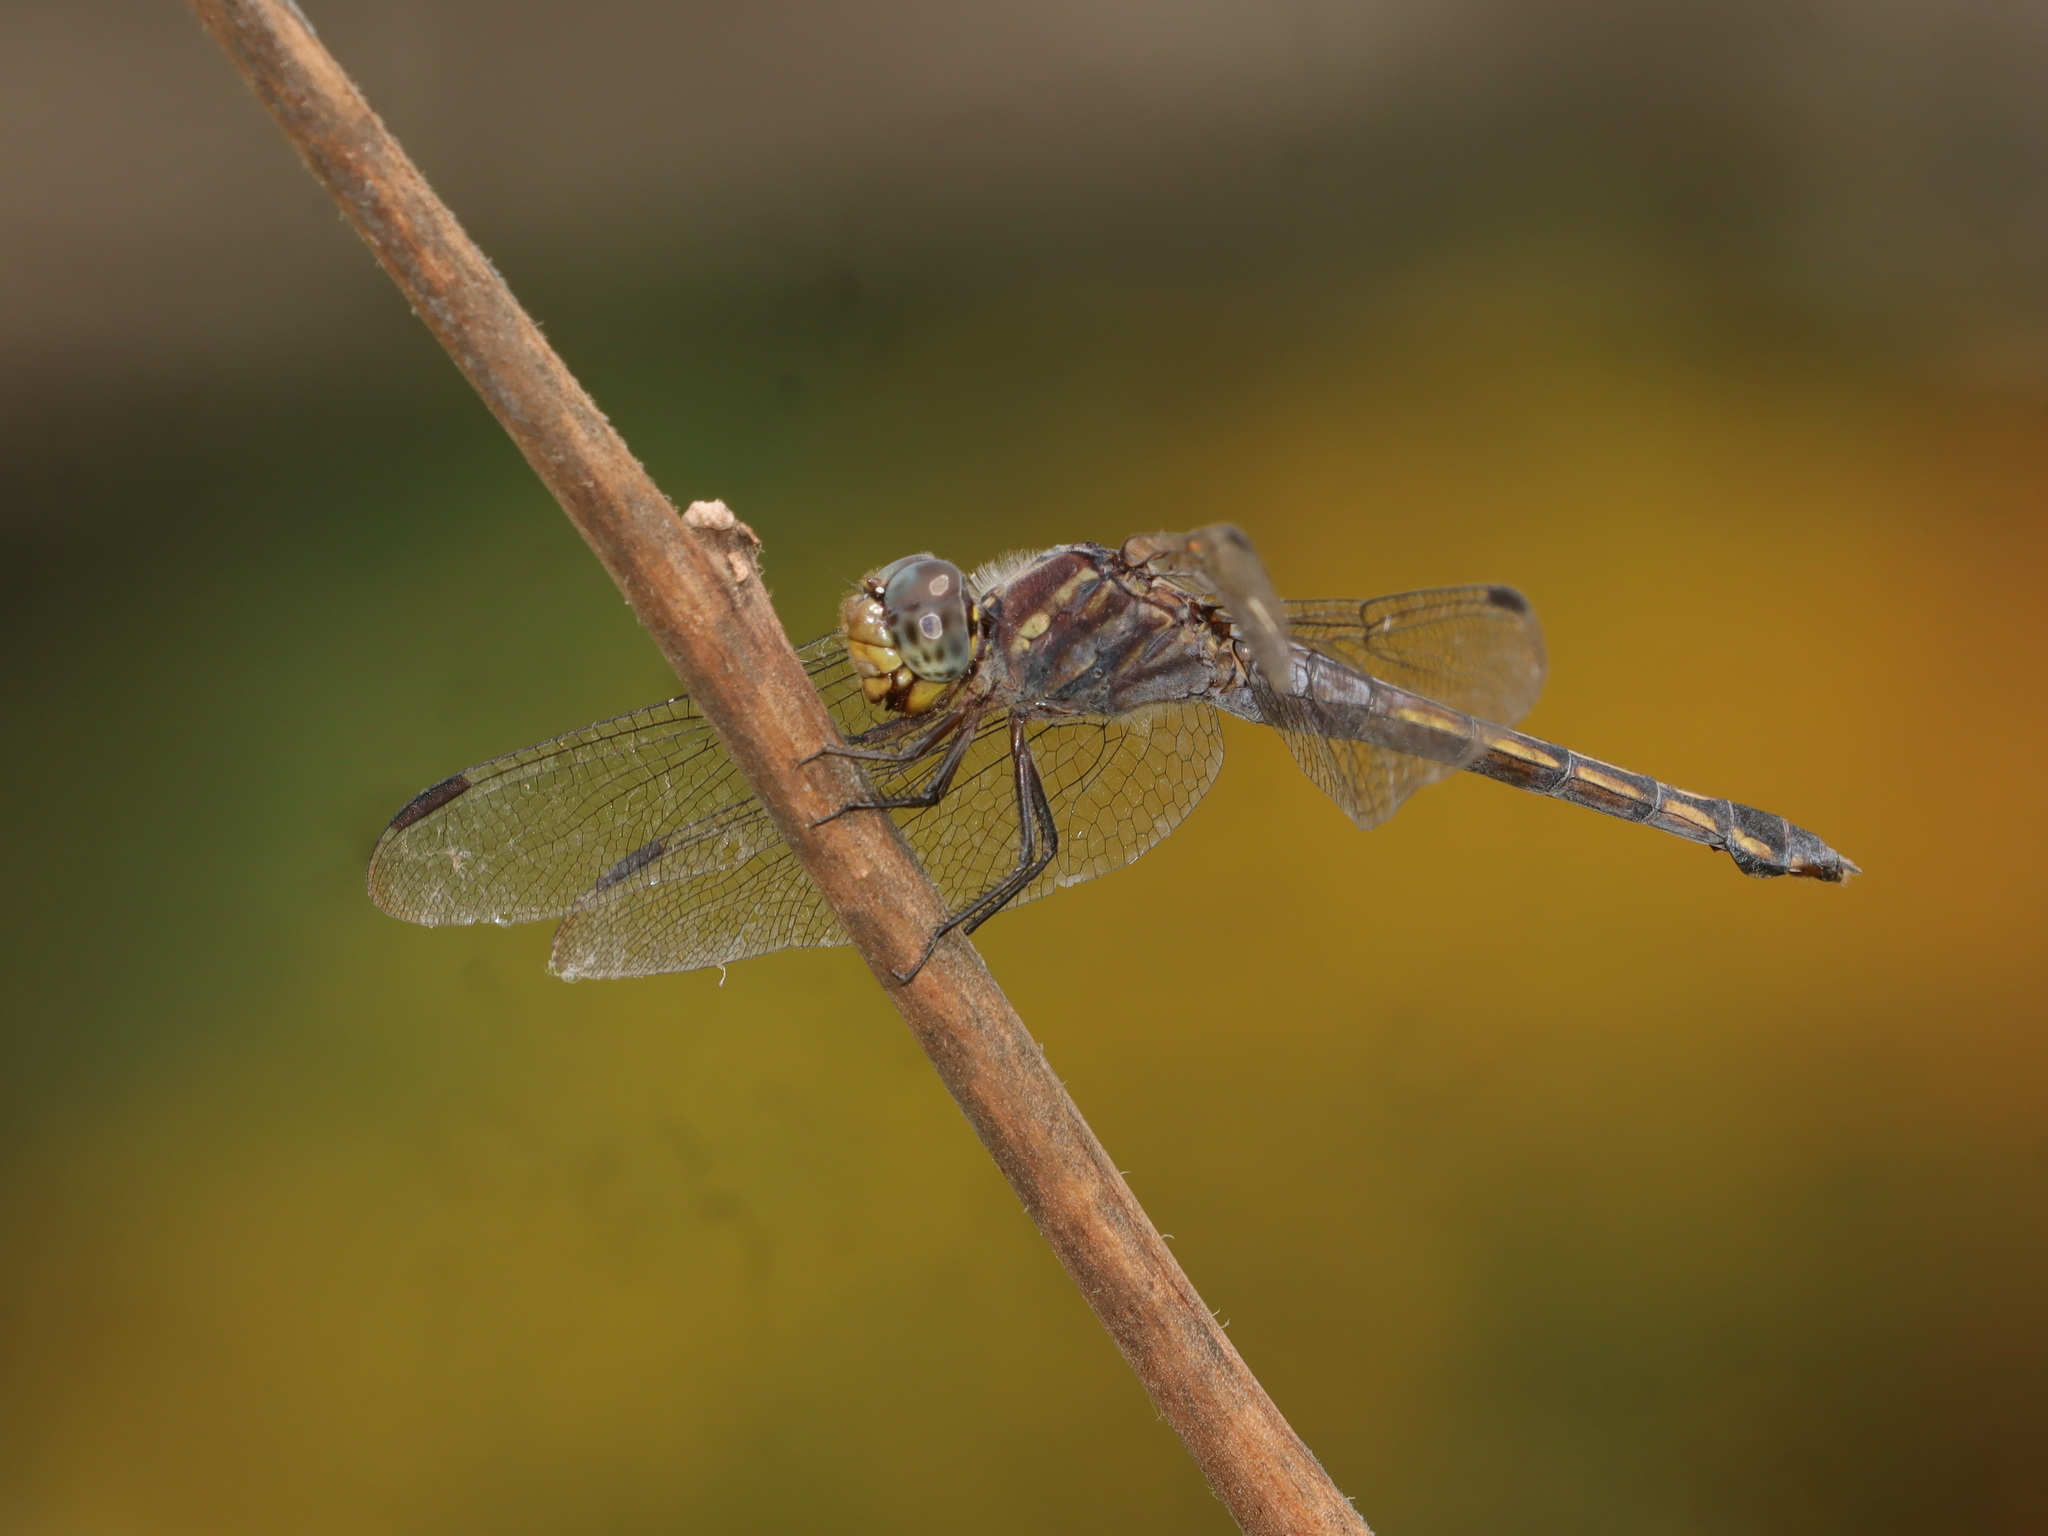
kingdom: Animalia
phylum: Arthropoda
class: Insecta
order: Odonata
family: Libellulidae
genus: Potamarcha
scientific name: Potamarcha congener
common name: Blue chaser
